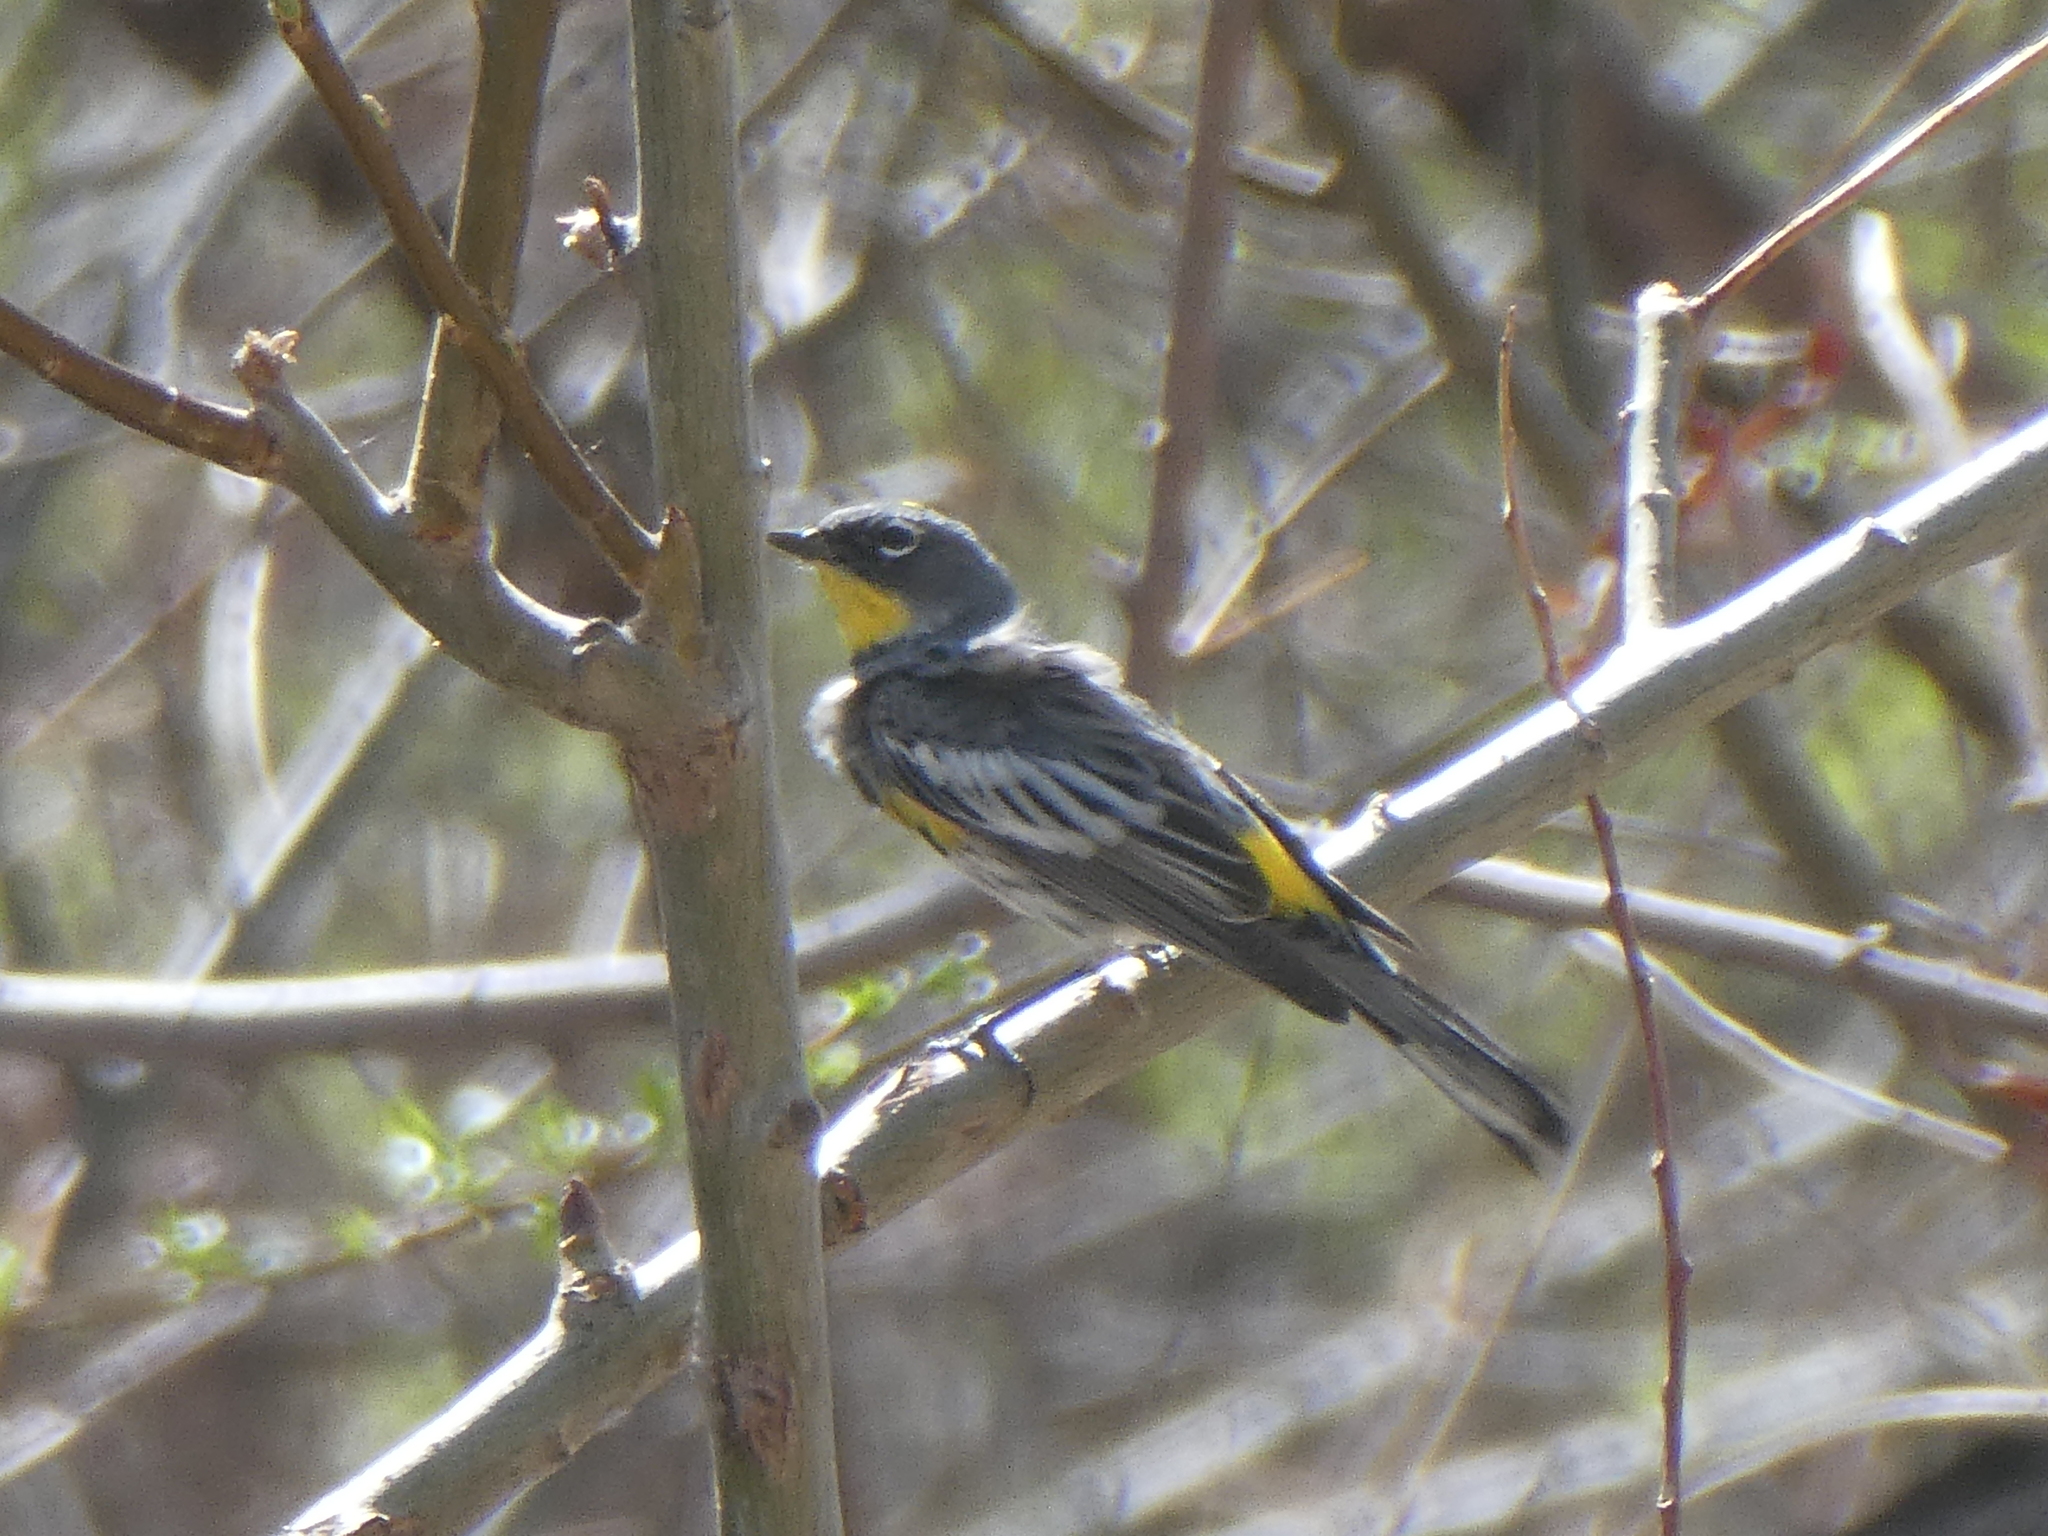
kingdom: Animalia
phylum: Chordata
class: Aves
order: Passeriformes
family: Parulidae
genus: Setophaga
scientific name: Setophaga auduboni
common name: Audubon's warbler
